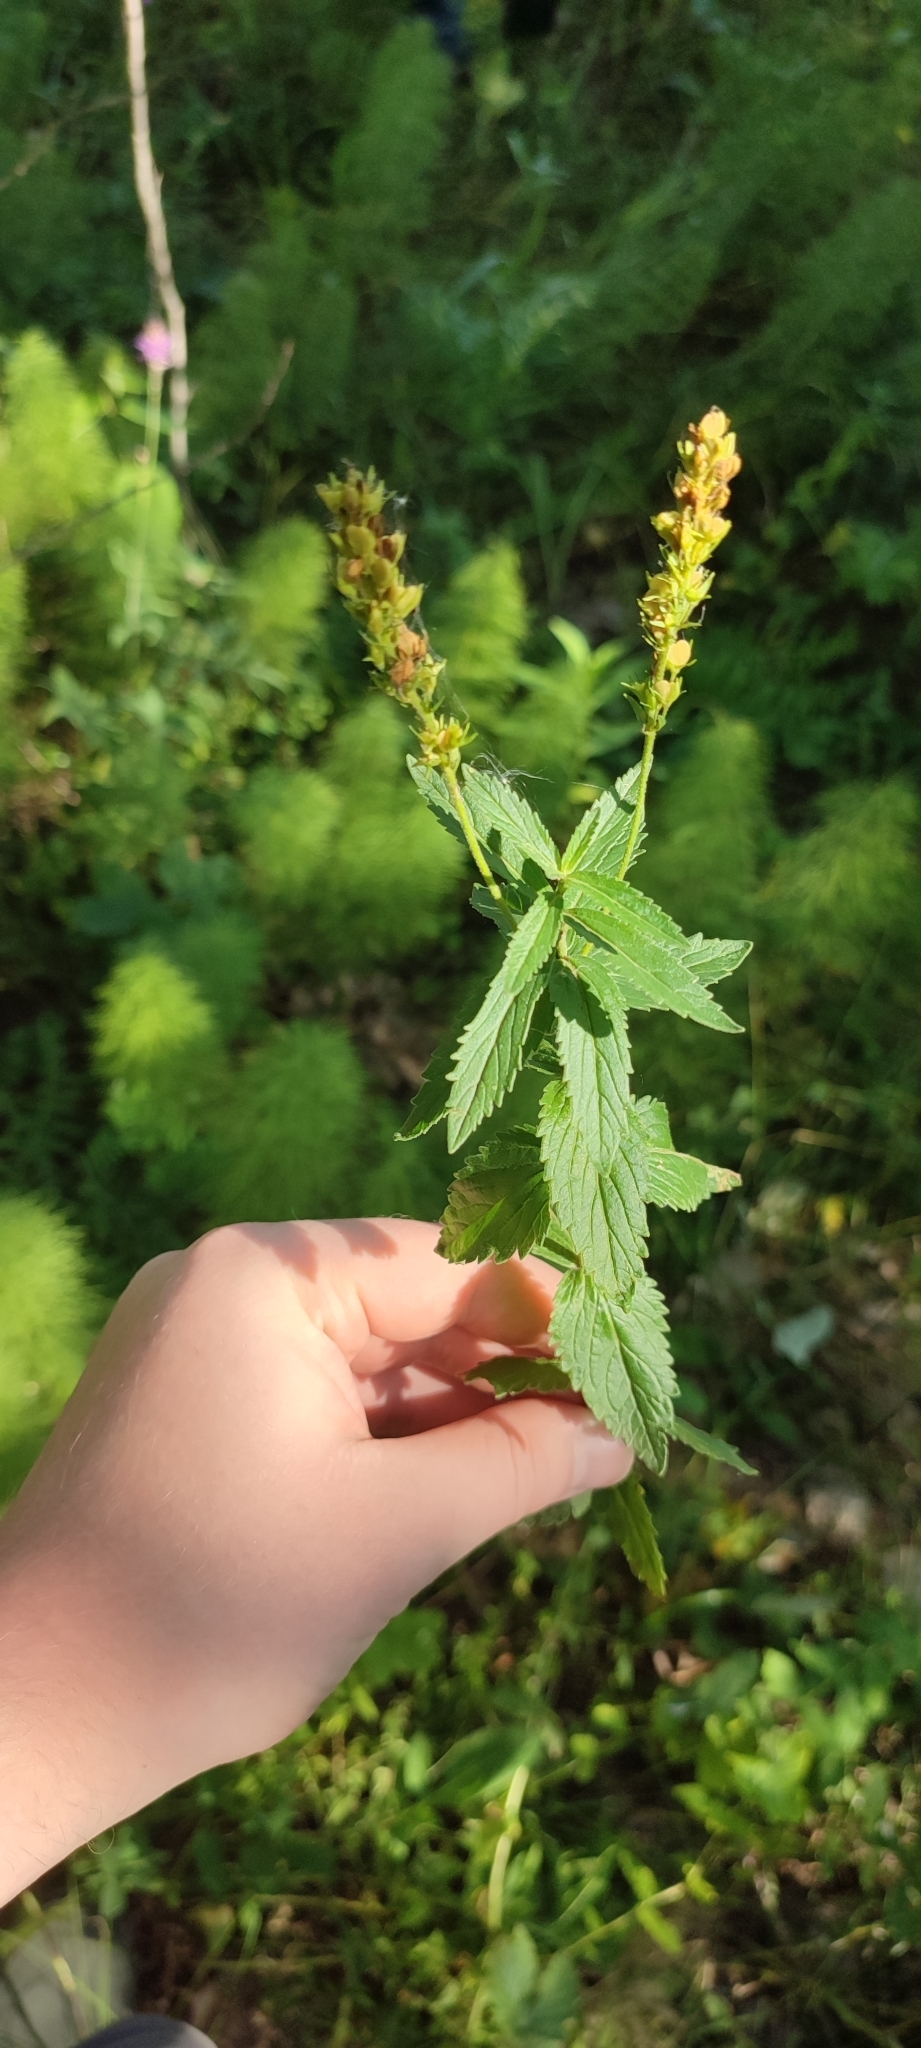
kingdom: Plantae
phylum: Tracheophyta
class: Magnoliopsida
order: Lamiales
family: Plantaginaceae
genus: Veronica
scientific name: Veronica teucrium
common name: Large speedwell
